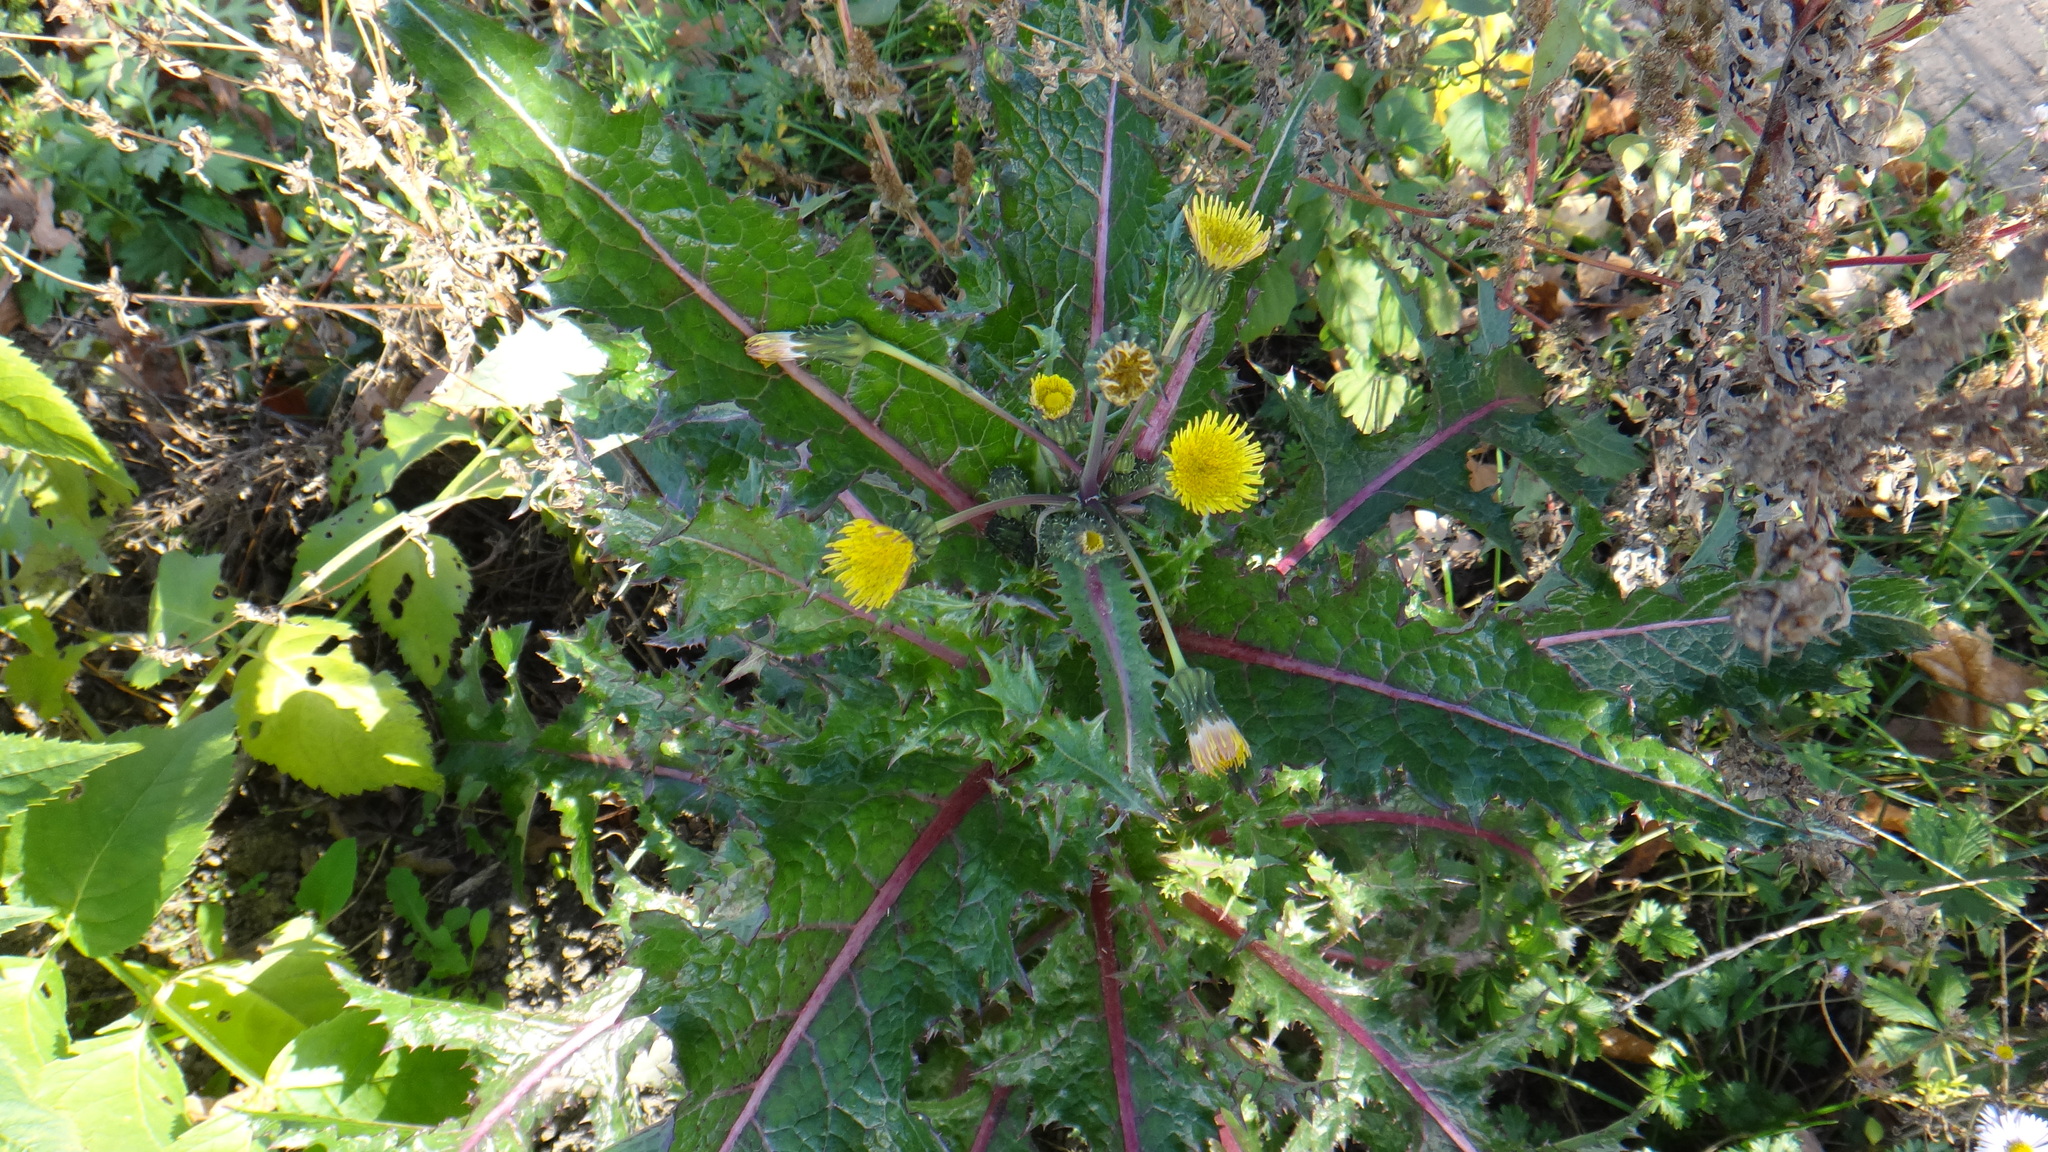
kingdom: Plantae
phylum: Tracheophyta
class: Magnoliopsida
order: Asterales
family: Asteraceae
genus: Sonchus
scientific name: Sonchus asper
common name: Prickly sow-thistle
